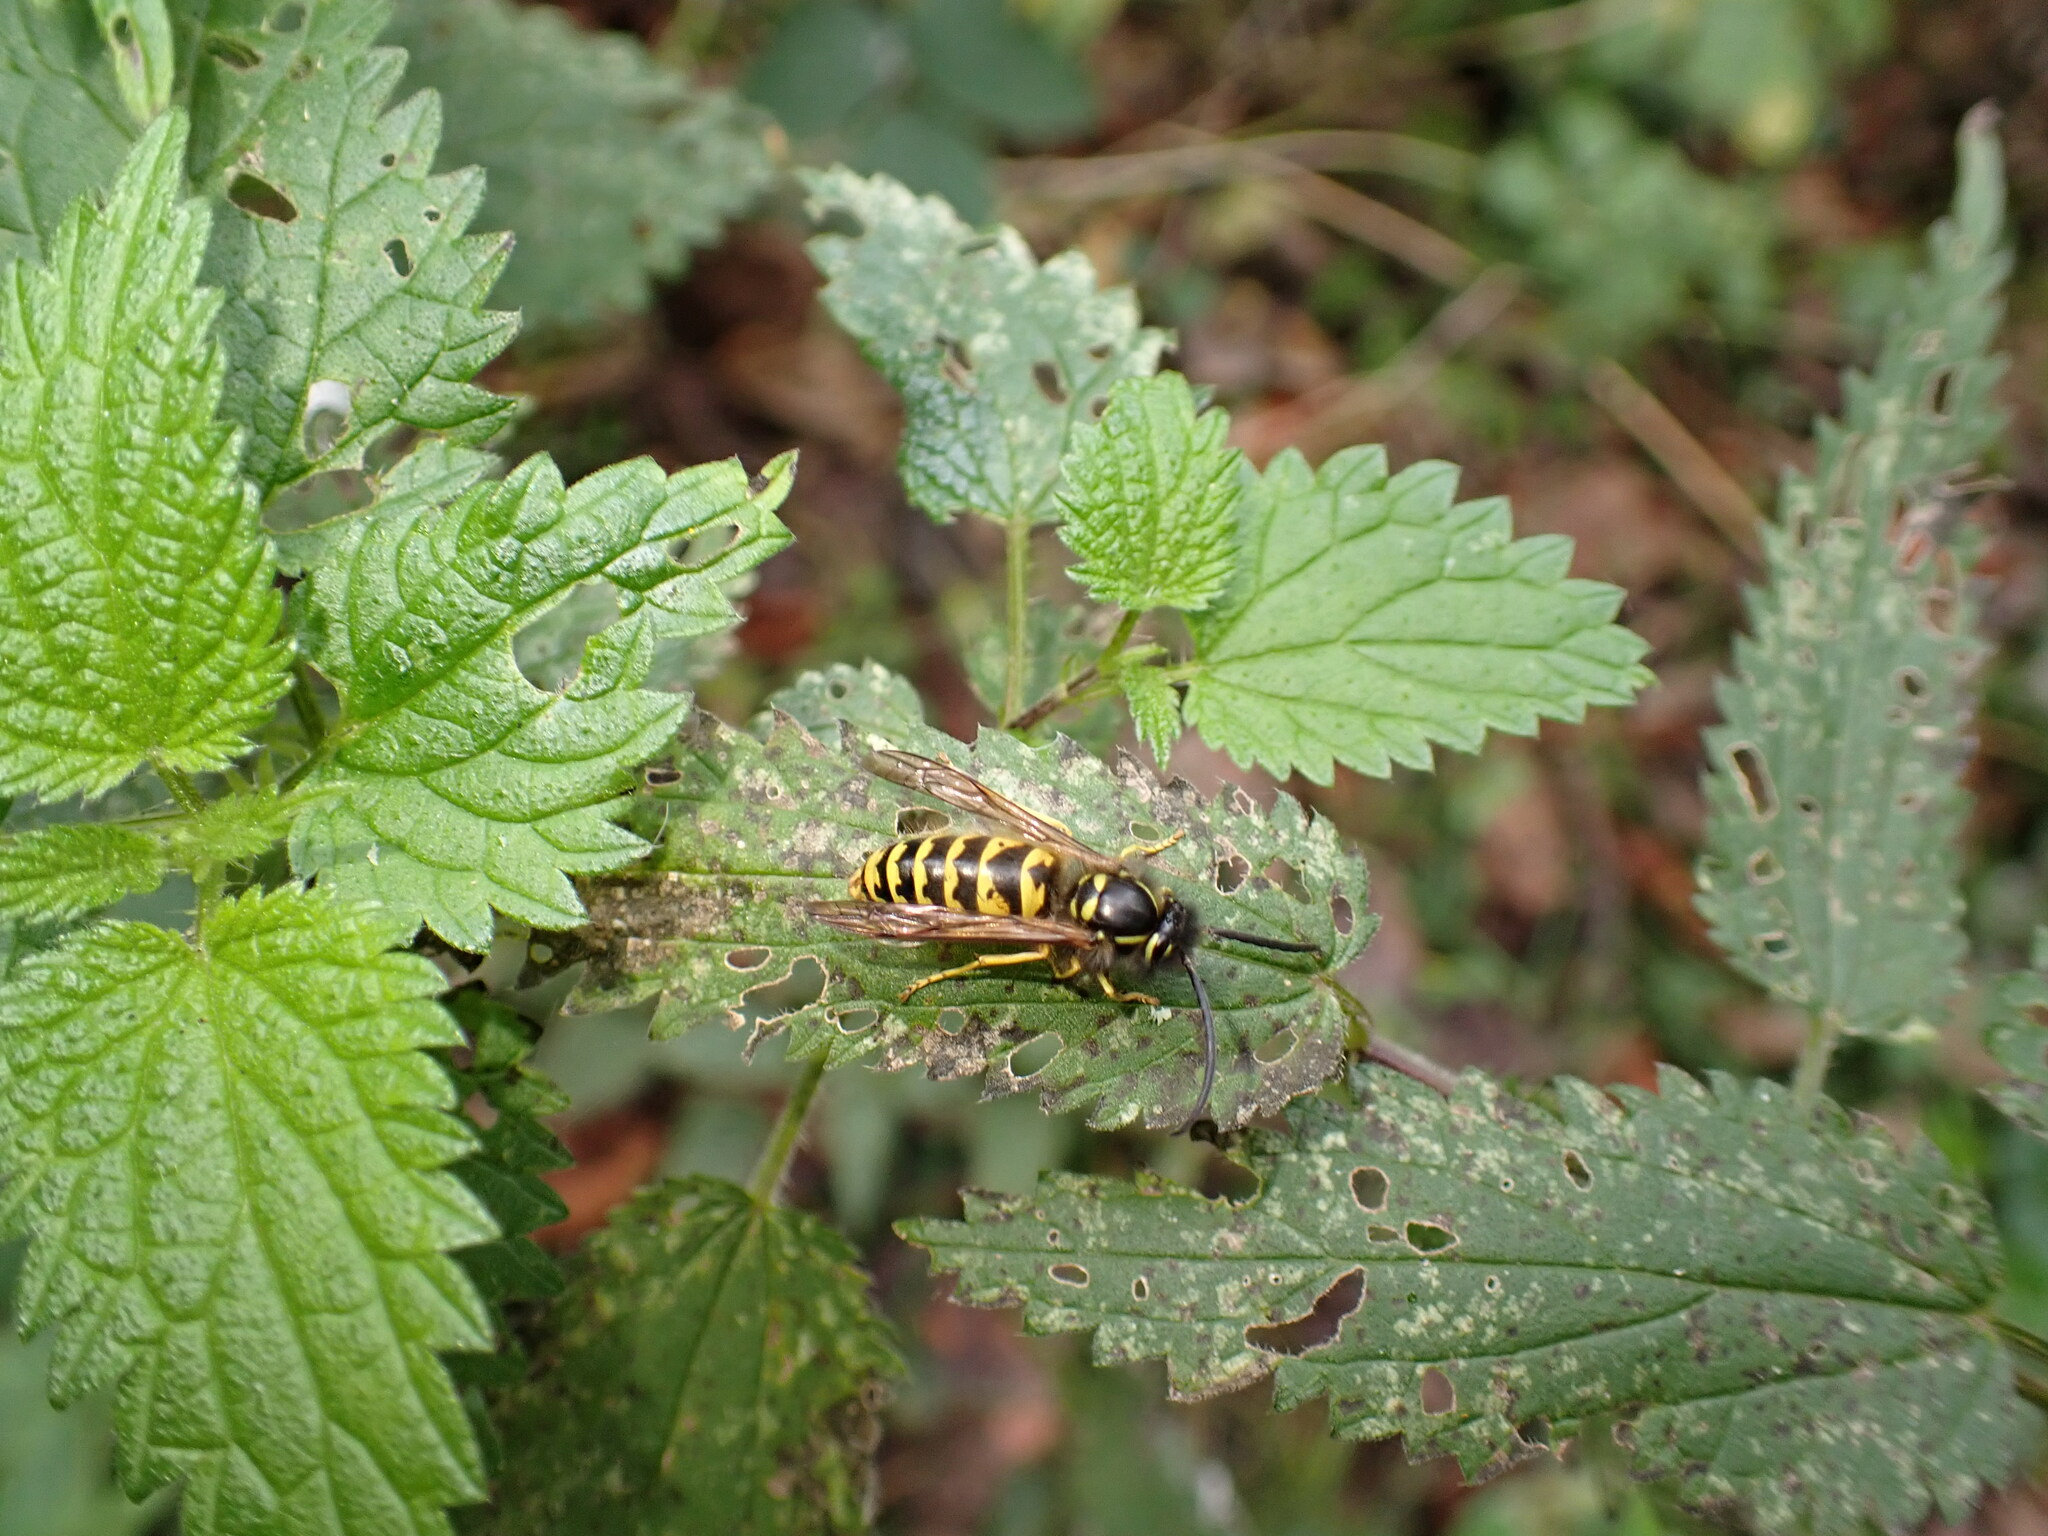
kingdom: Animalia
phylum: Arthropoda
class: Insecta
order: Hymenoptera
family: Vespidae
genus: Vespula
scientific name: Vespula vulgaris
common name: Common wasp
